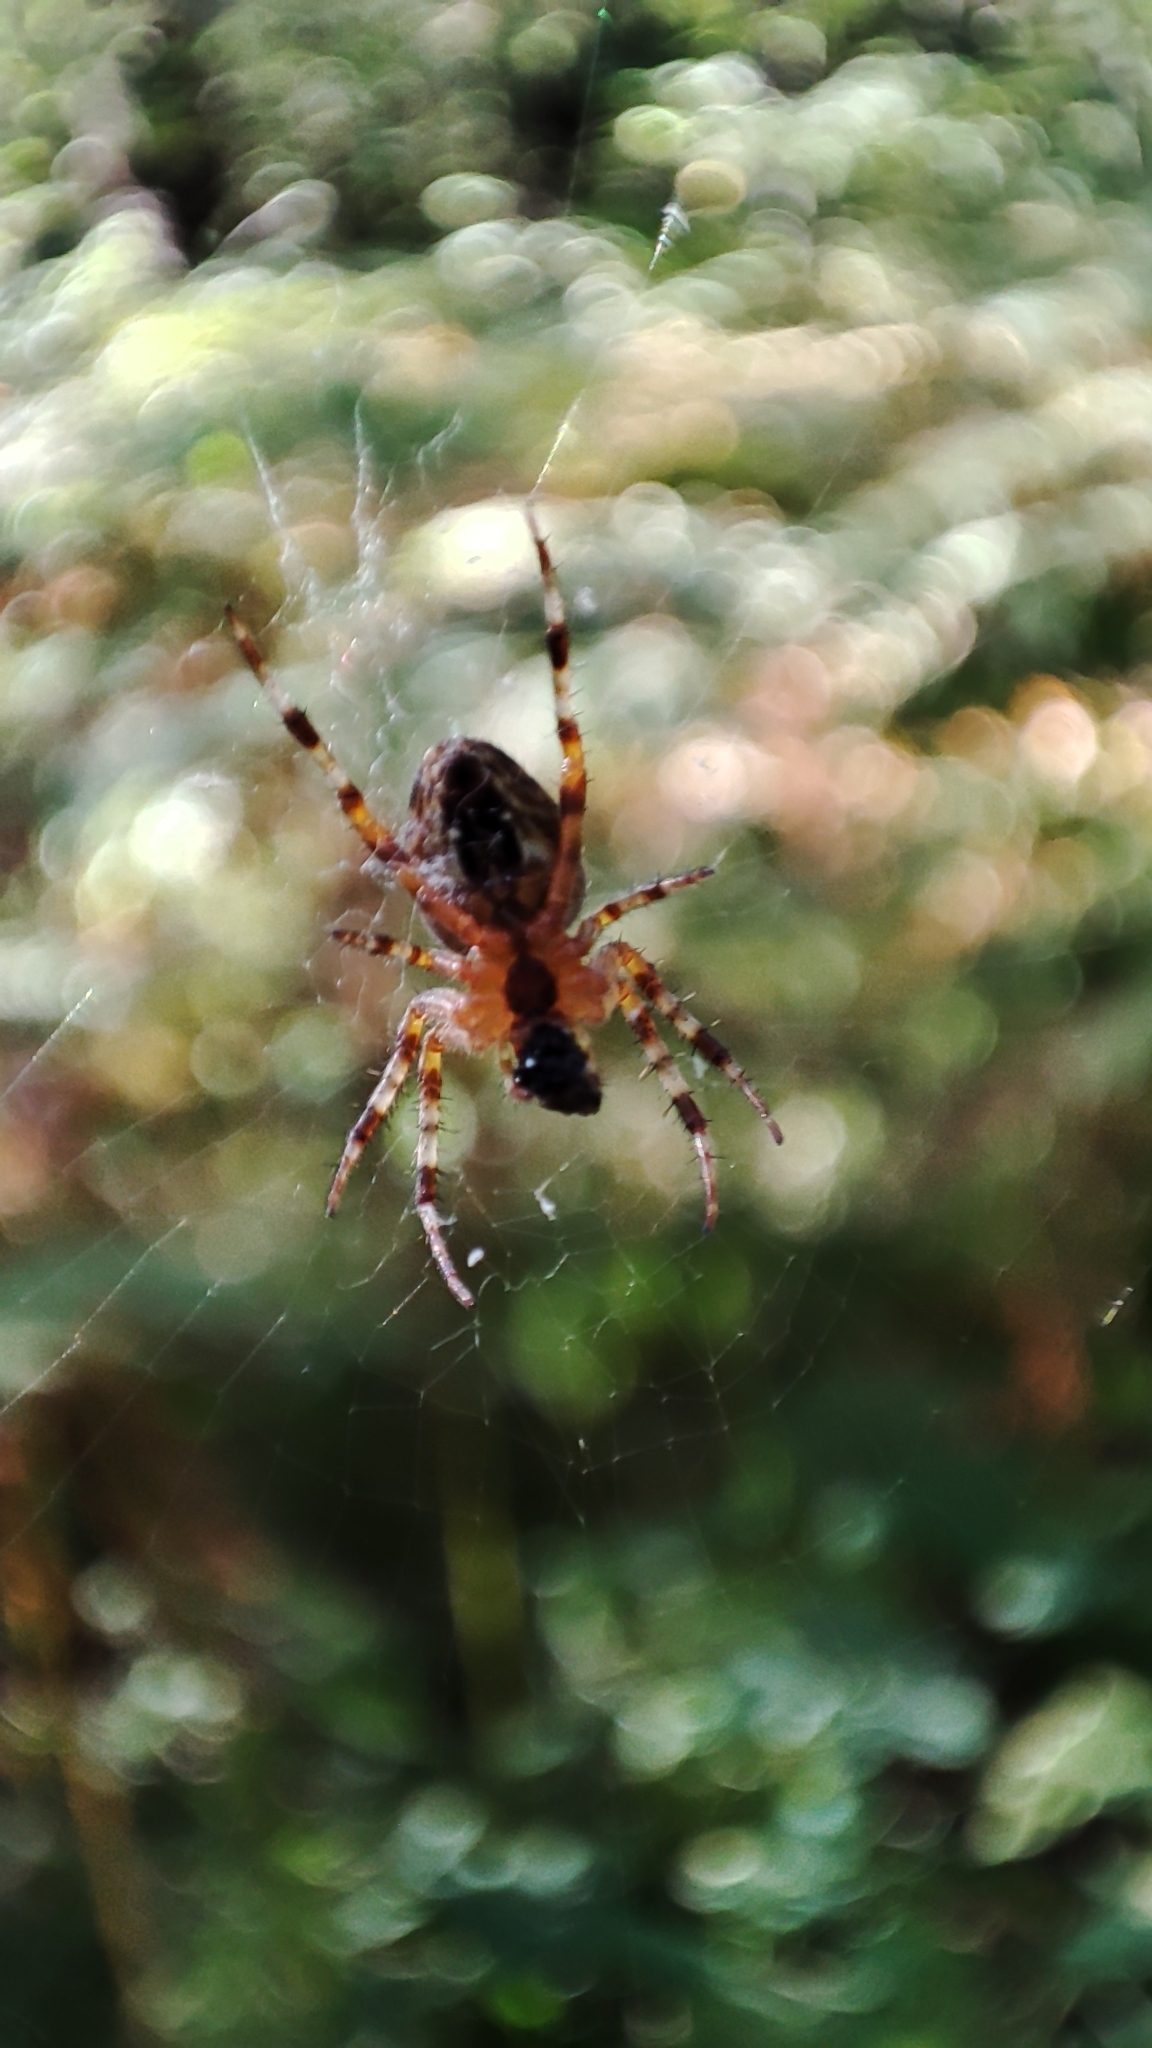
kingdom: Animalia
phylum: Arthropoda
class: Arachnida
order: Araneae
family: Araneidae
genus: Araneus
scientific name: Araneus diadematus
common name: Cross orbweaver
